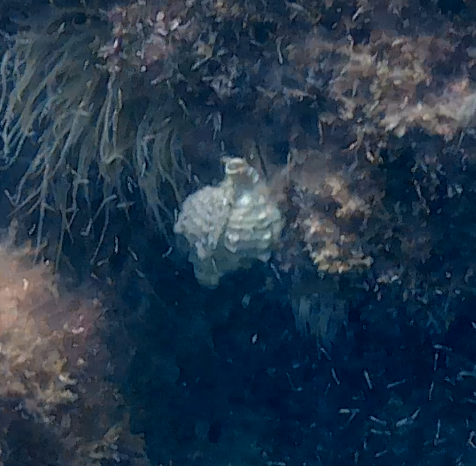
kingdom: Animalia
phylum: Mollusca
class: Gastropoda
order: Neogastropoda
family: Muricidae
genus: Hexaplex
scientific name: Hexaplex trunculus
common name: Banded dye-murex
